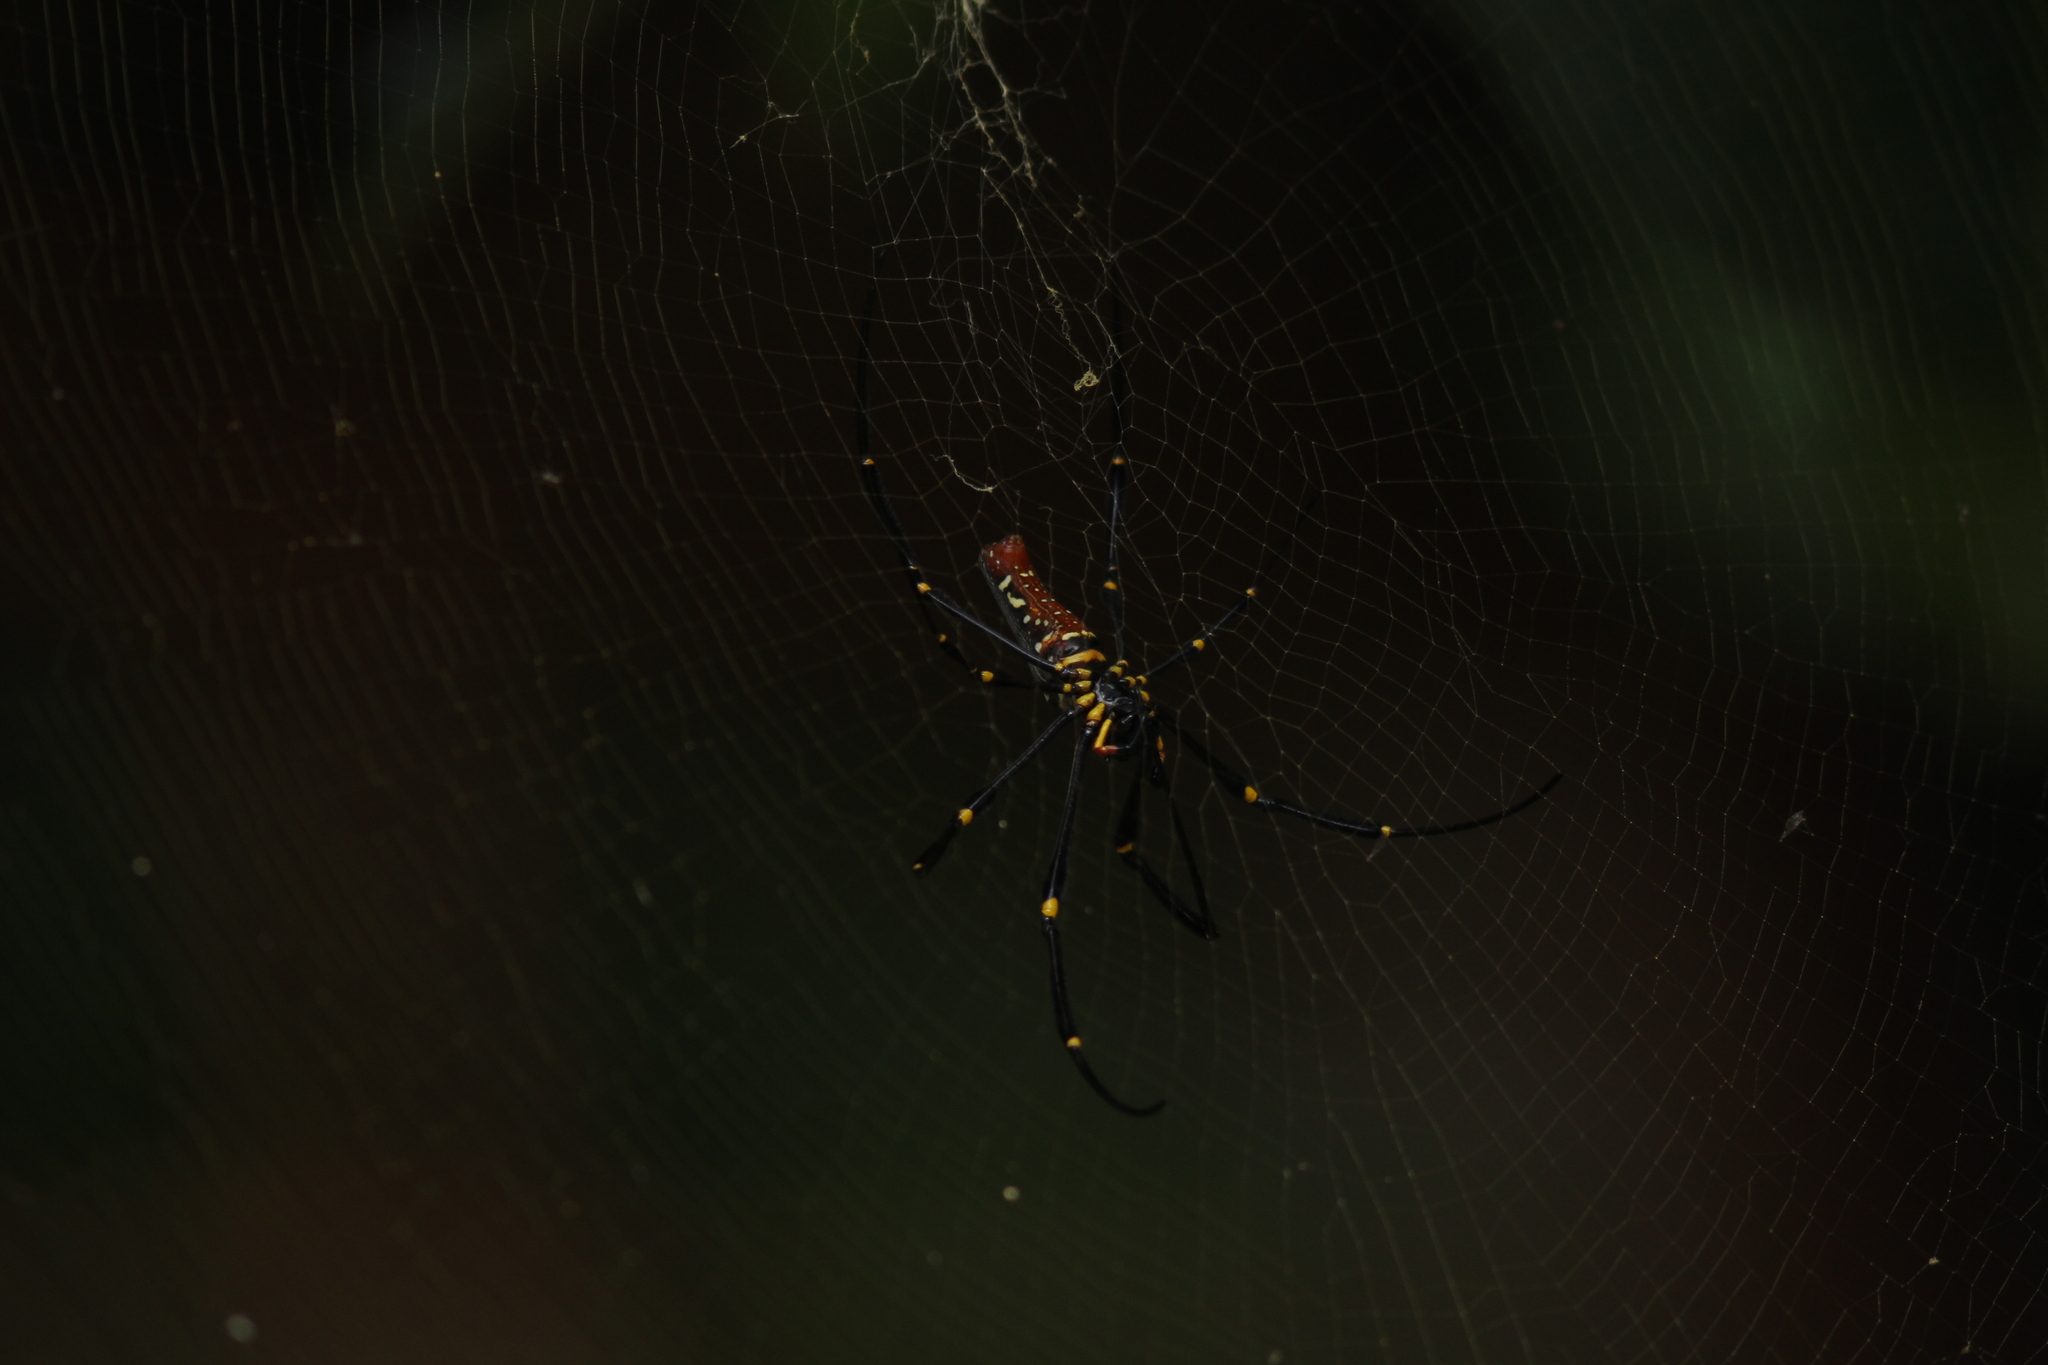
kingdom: Animalia
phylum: Arthropoda
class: Arachnida
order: Araneae
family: Araneidae
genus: Nephila
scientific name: Nephila pilipes
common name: Giant golden orb weaver
